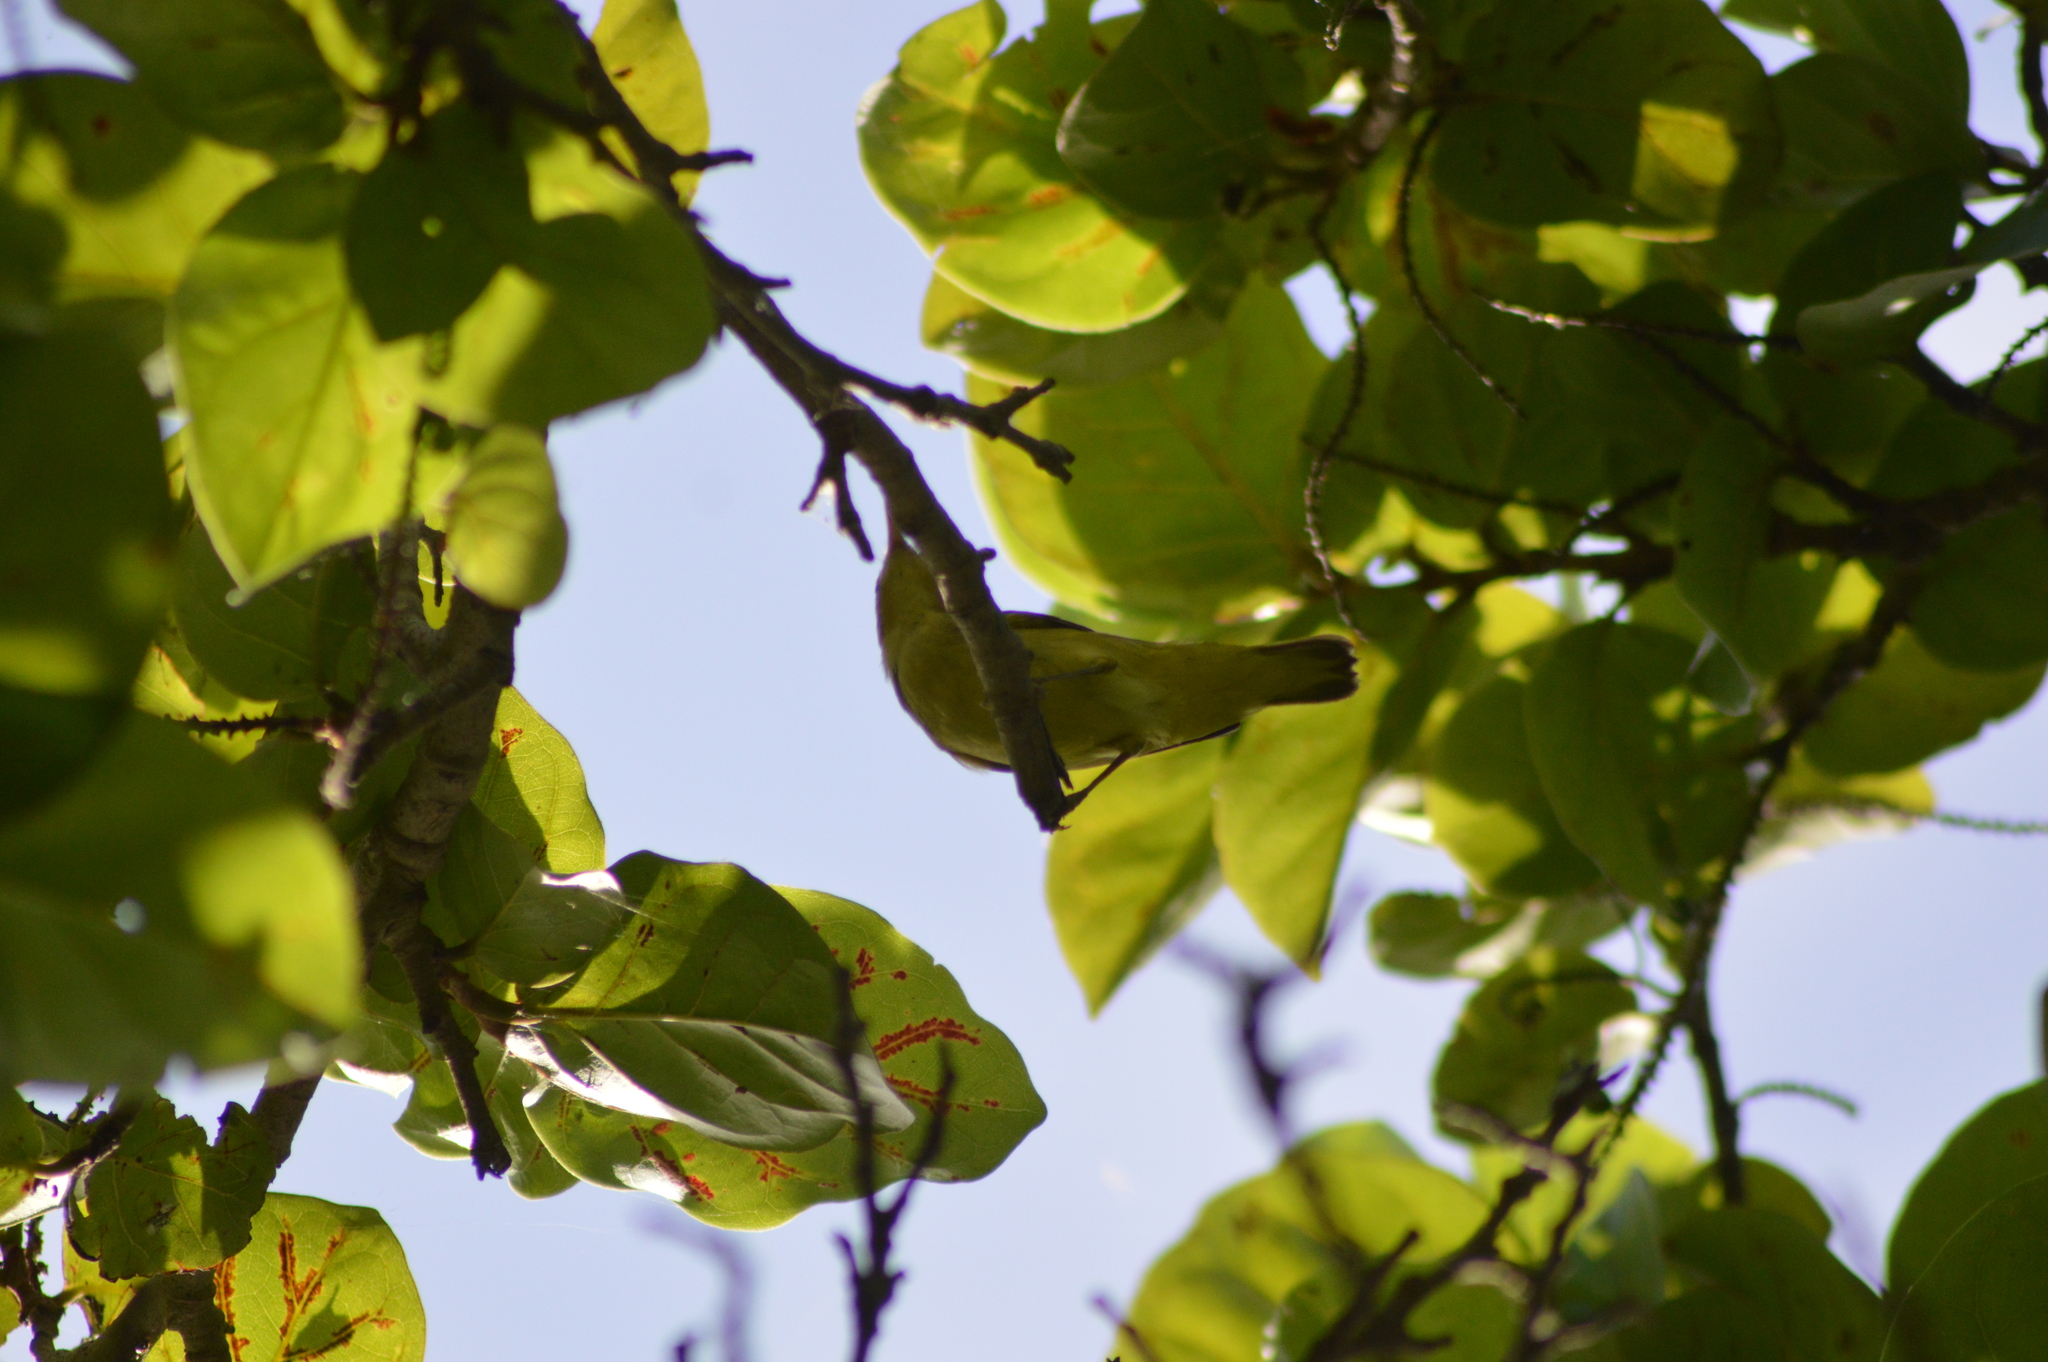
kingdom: Animalia
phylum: Chordata
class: Aves
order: Passeriformes
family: Parulidae
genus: Setophaga
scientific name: Setophaga petechia
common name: Yellow warbler
